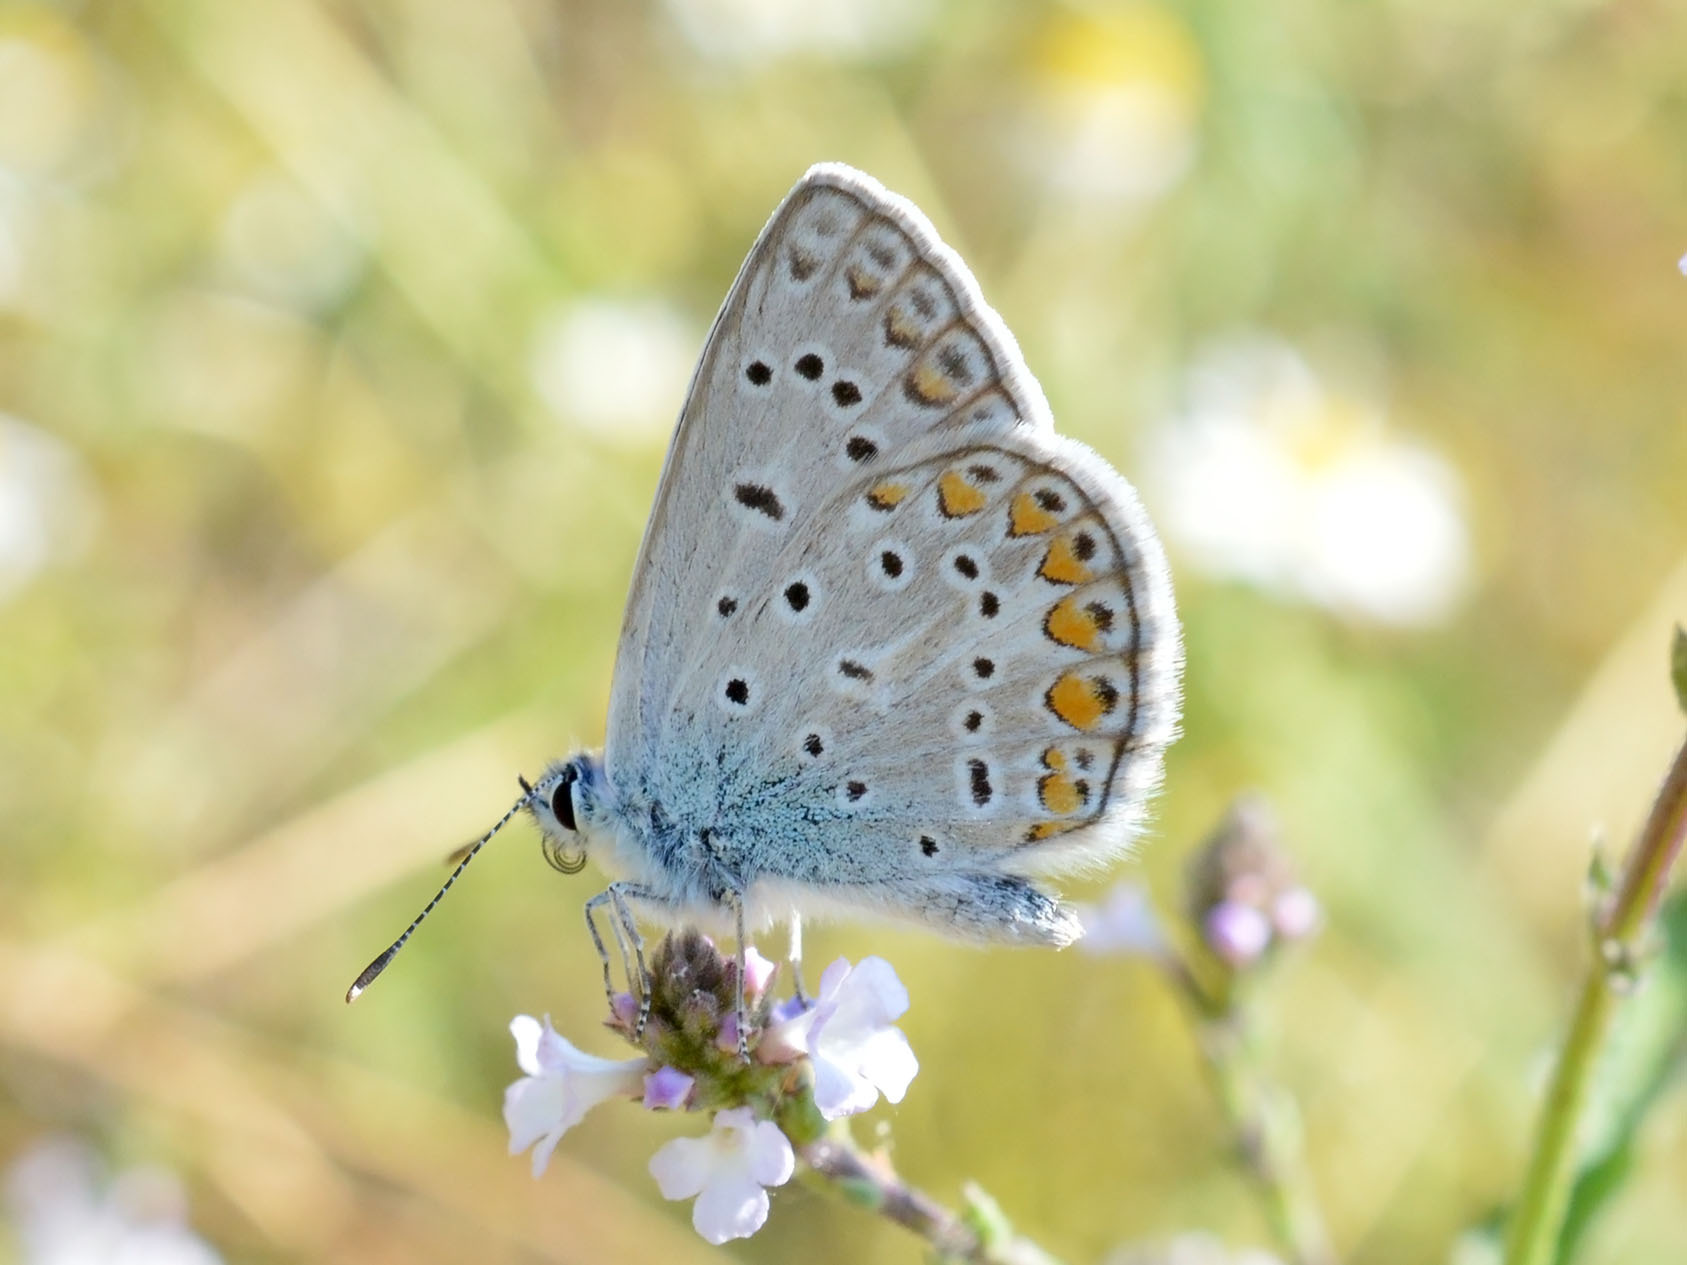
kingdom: Animalia
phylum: Arthropoda
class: Insecta
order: Lepidoptera
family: Lycaenidae
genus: Polyommatus
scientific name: Polyommatus icarus
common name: Common blue
